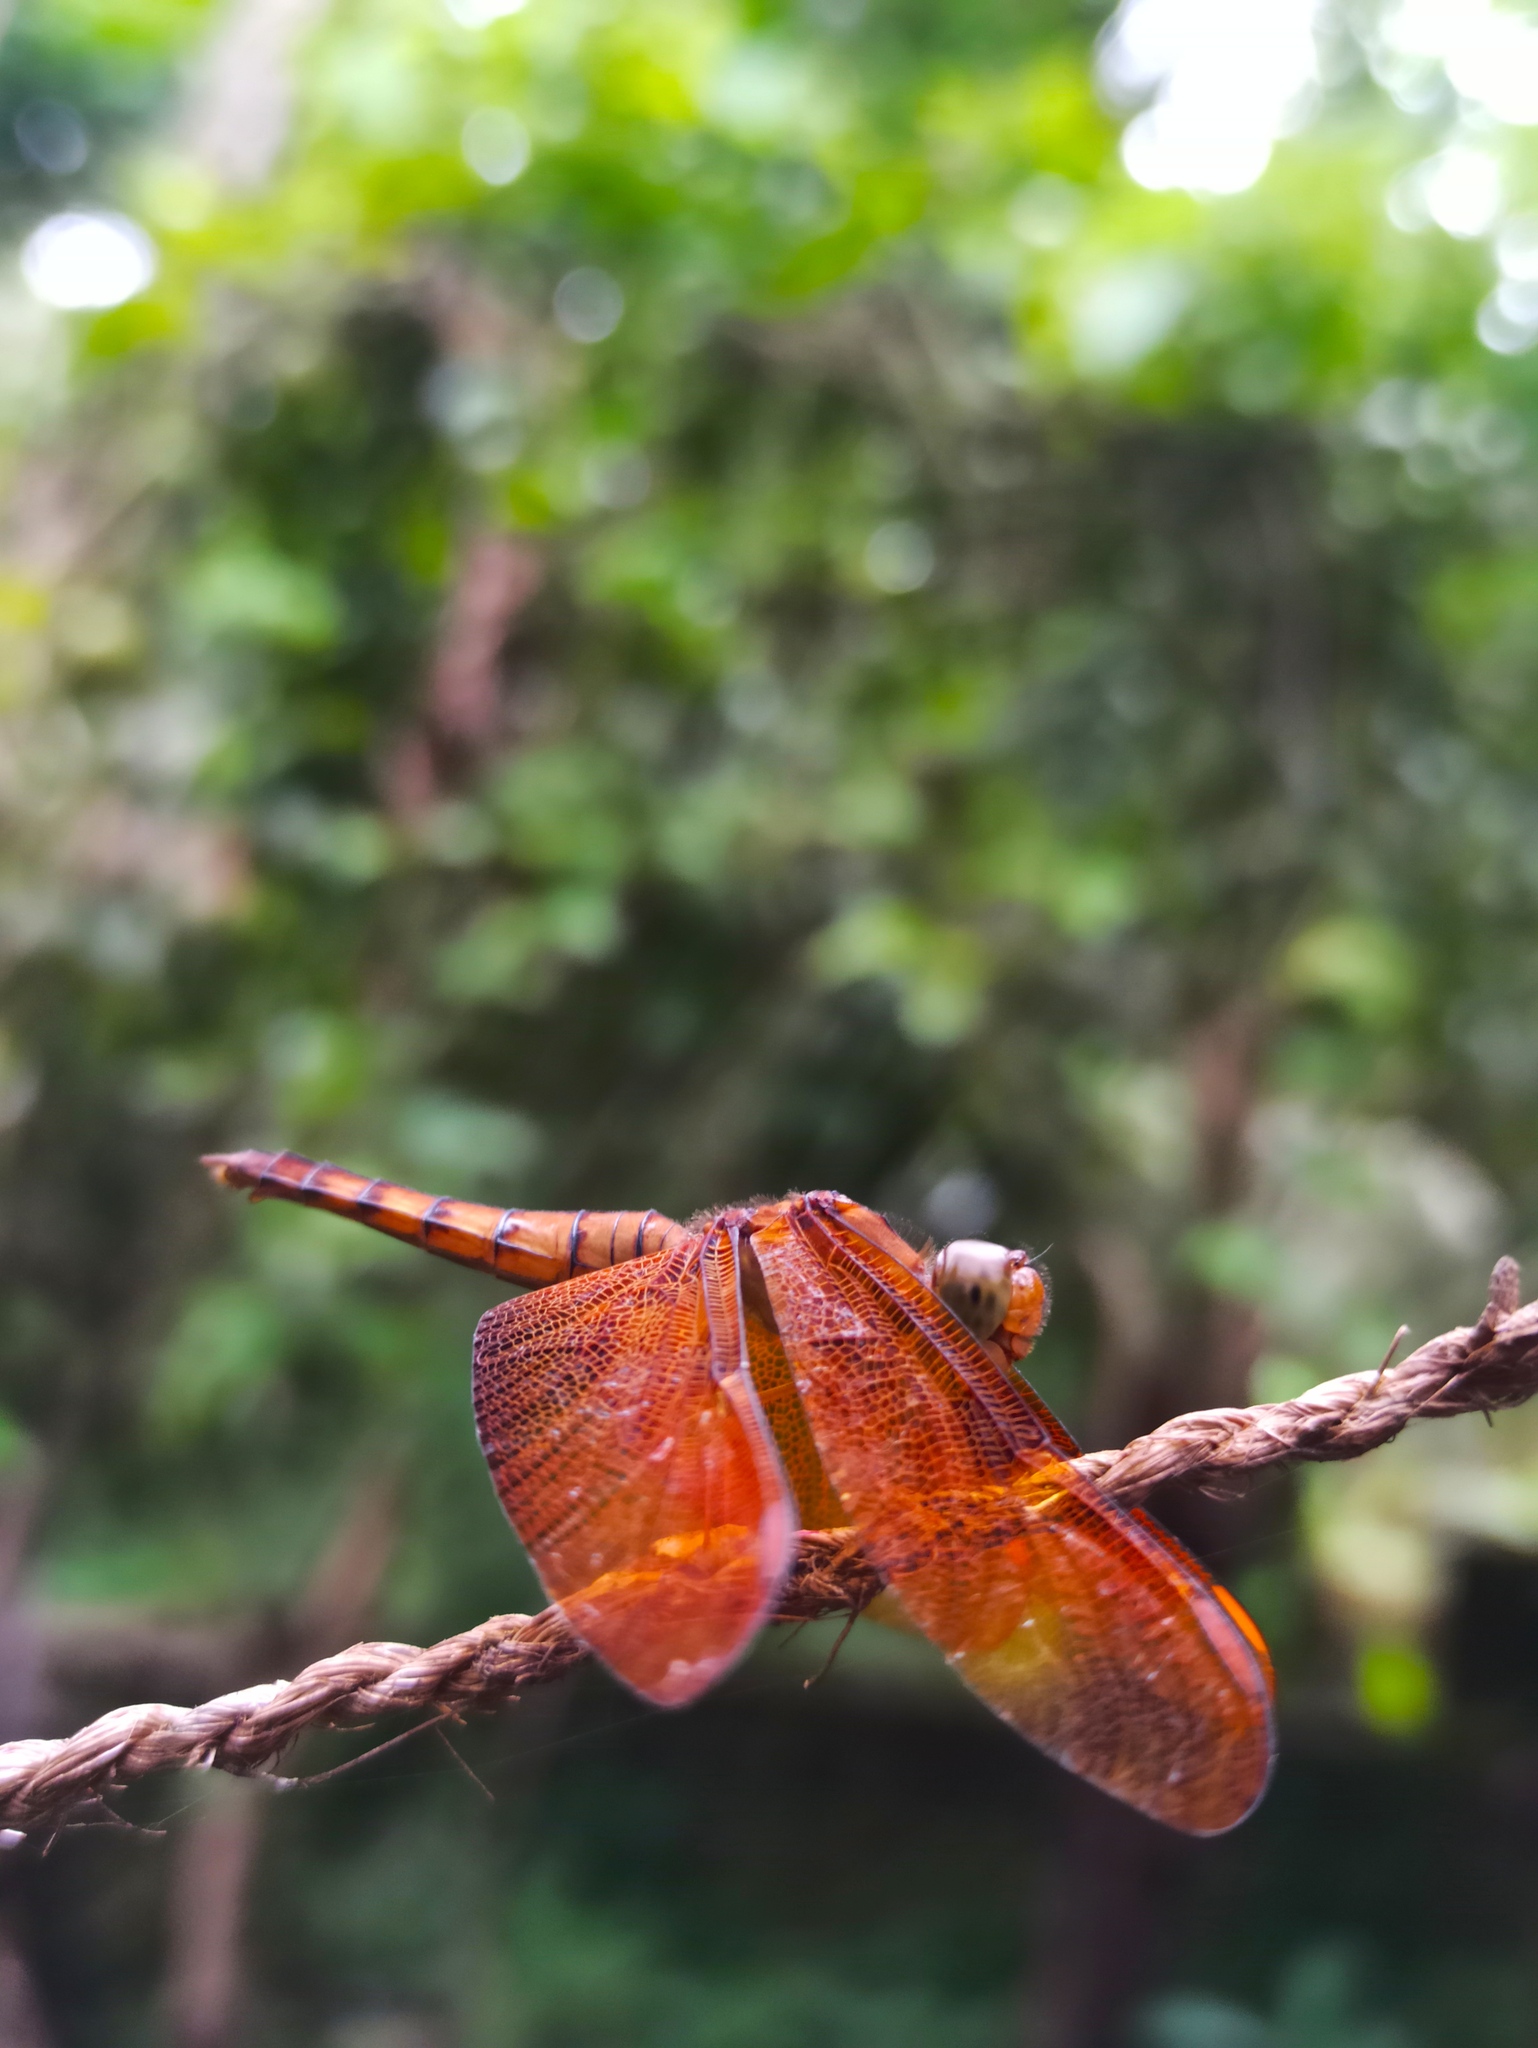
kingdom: Animalia
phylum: Arthropoda
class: Insecta
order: Odonata
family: Libellulidae
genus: Neurothemis
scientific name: Neurothemis fulvia
